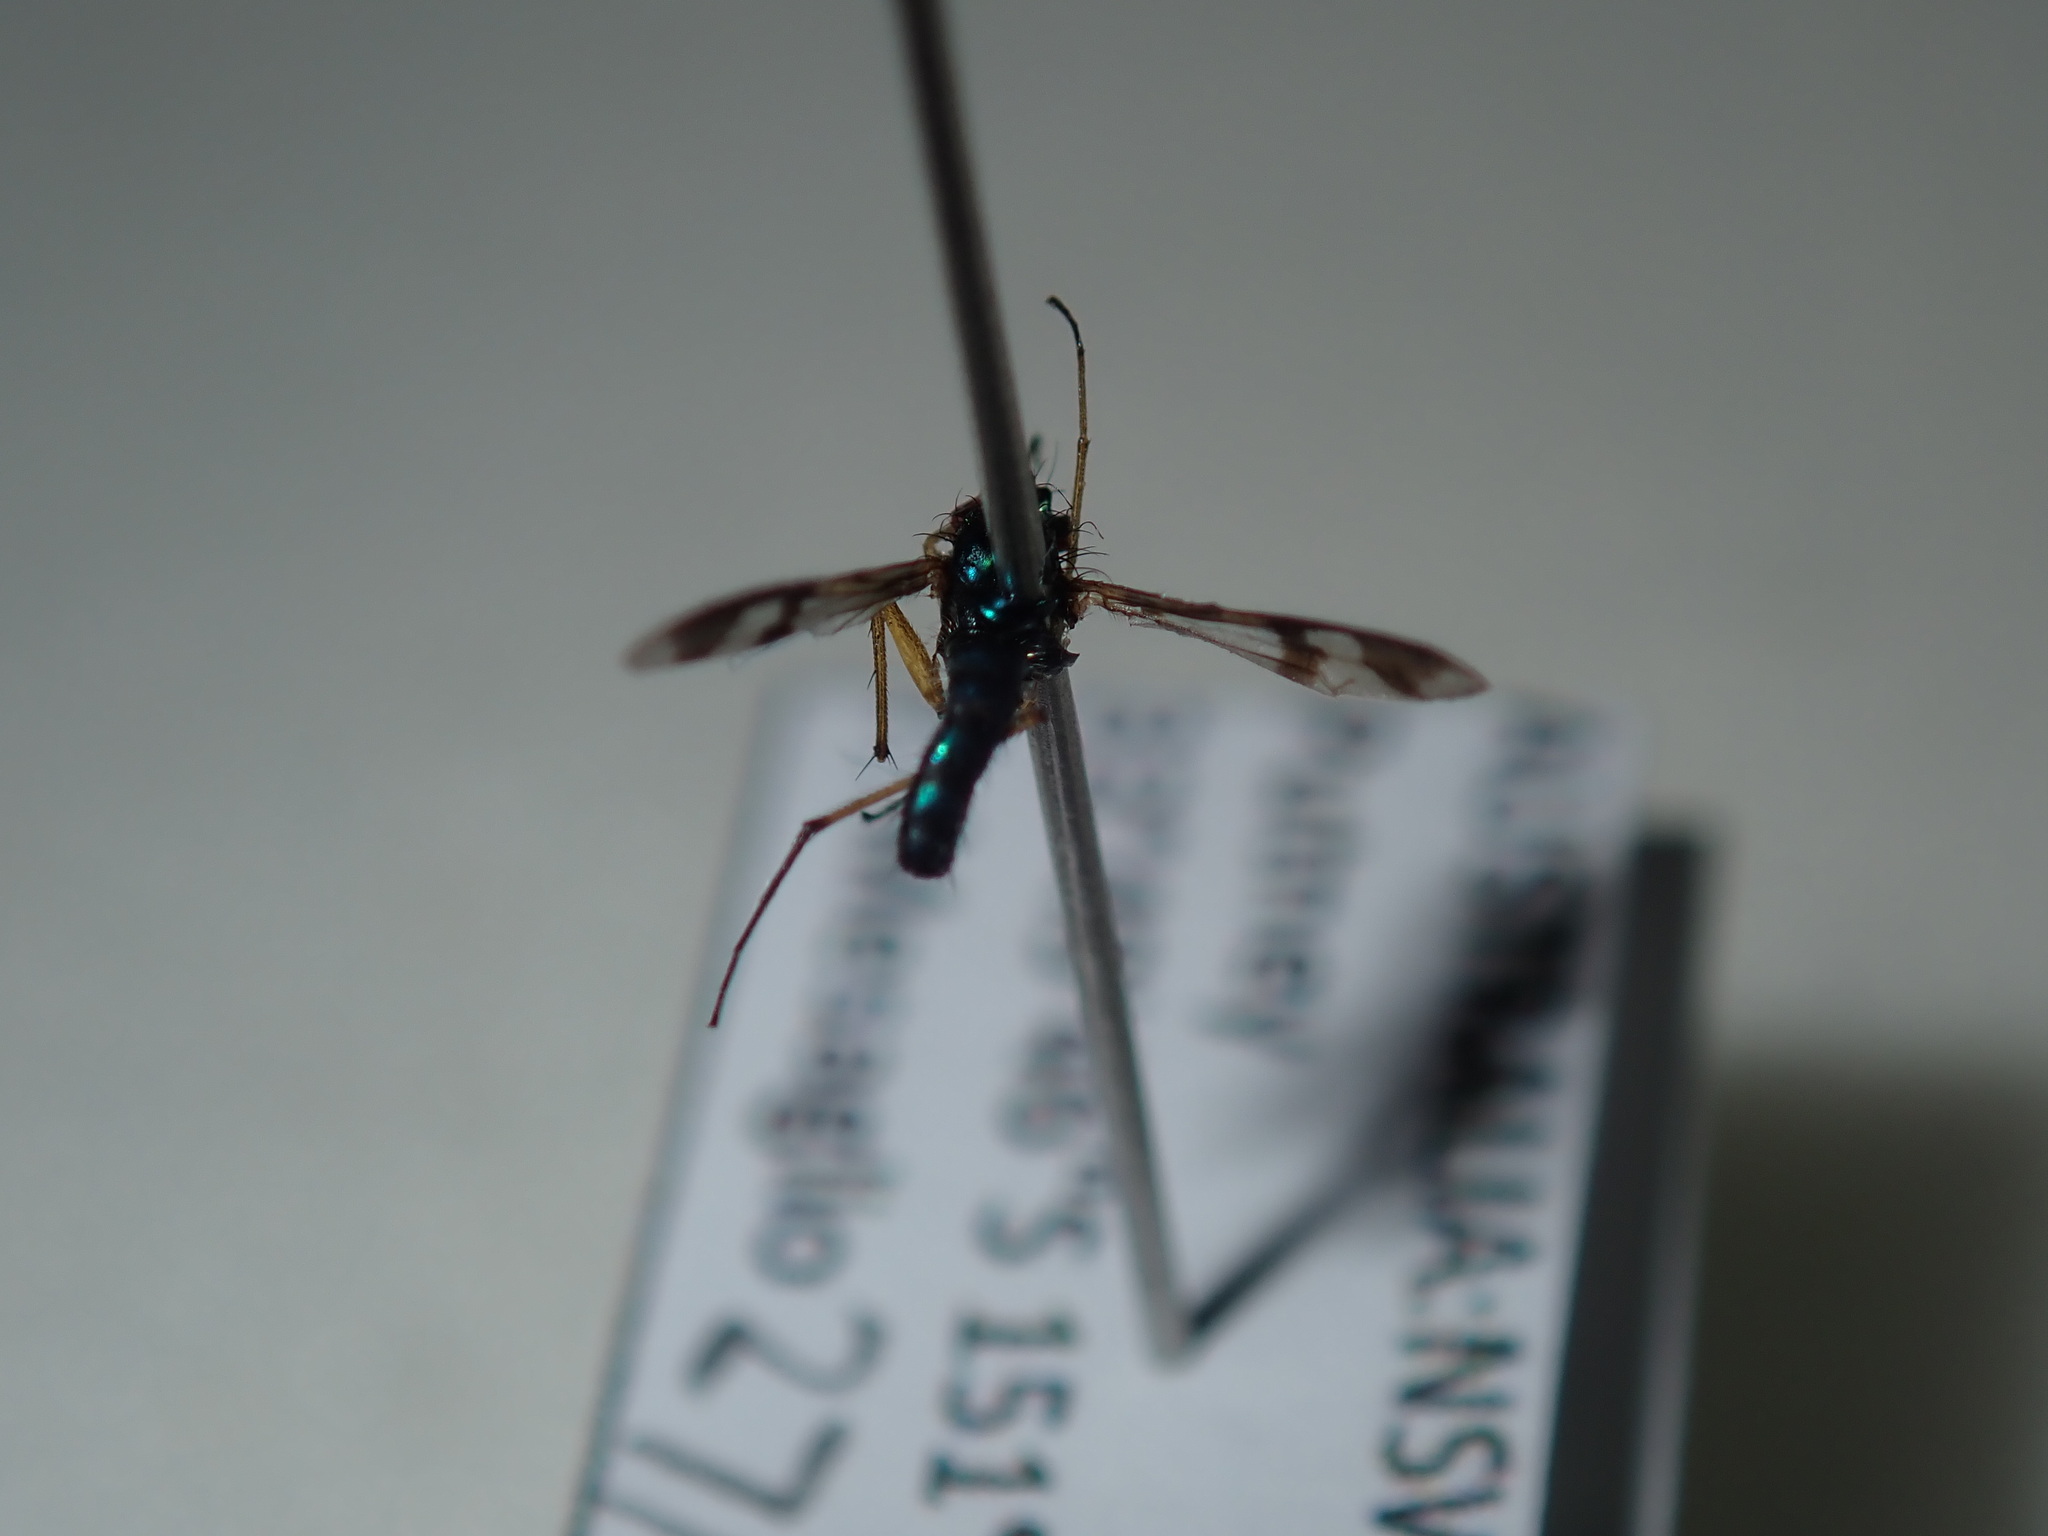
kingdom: Animalia
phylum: Arthropoda
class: Insecta
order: Diptera
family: Dolichopodidae
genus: Austrosciapus
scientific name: Austrosciapus connexus
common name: Green long-legged fly
